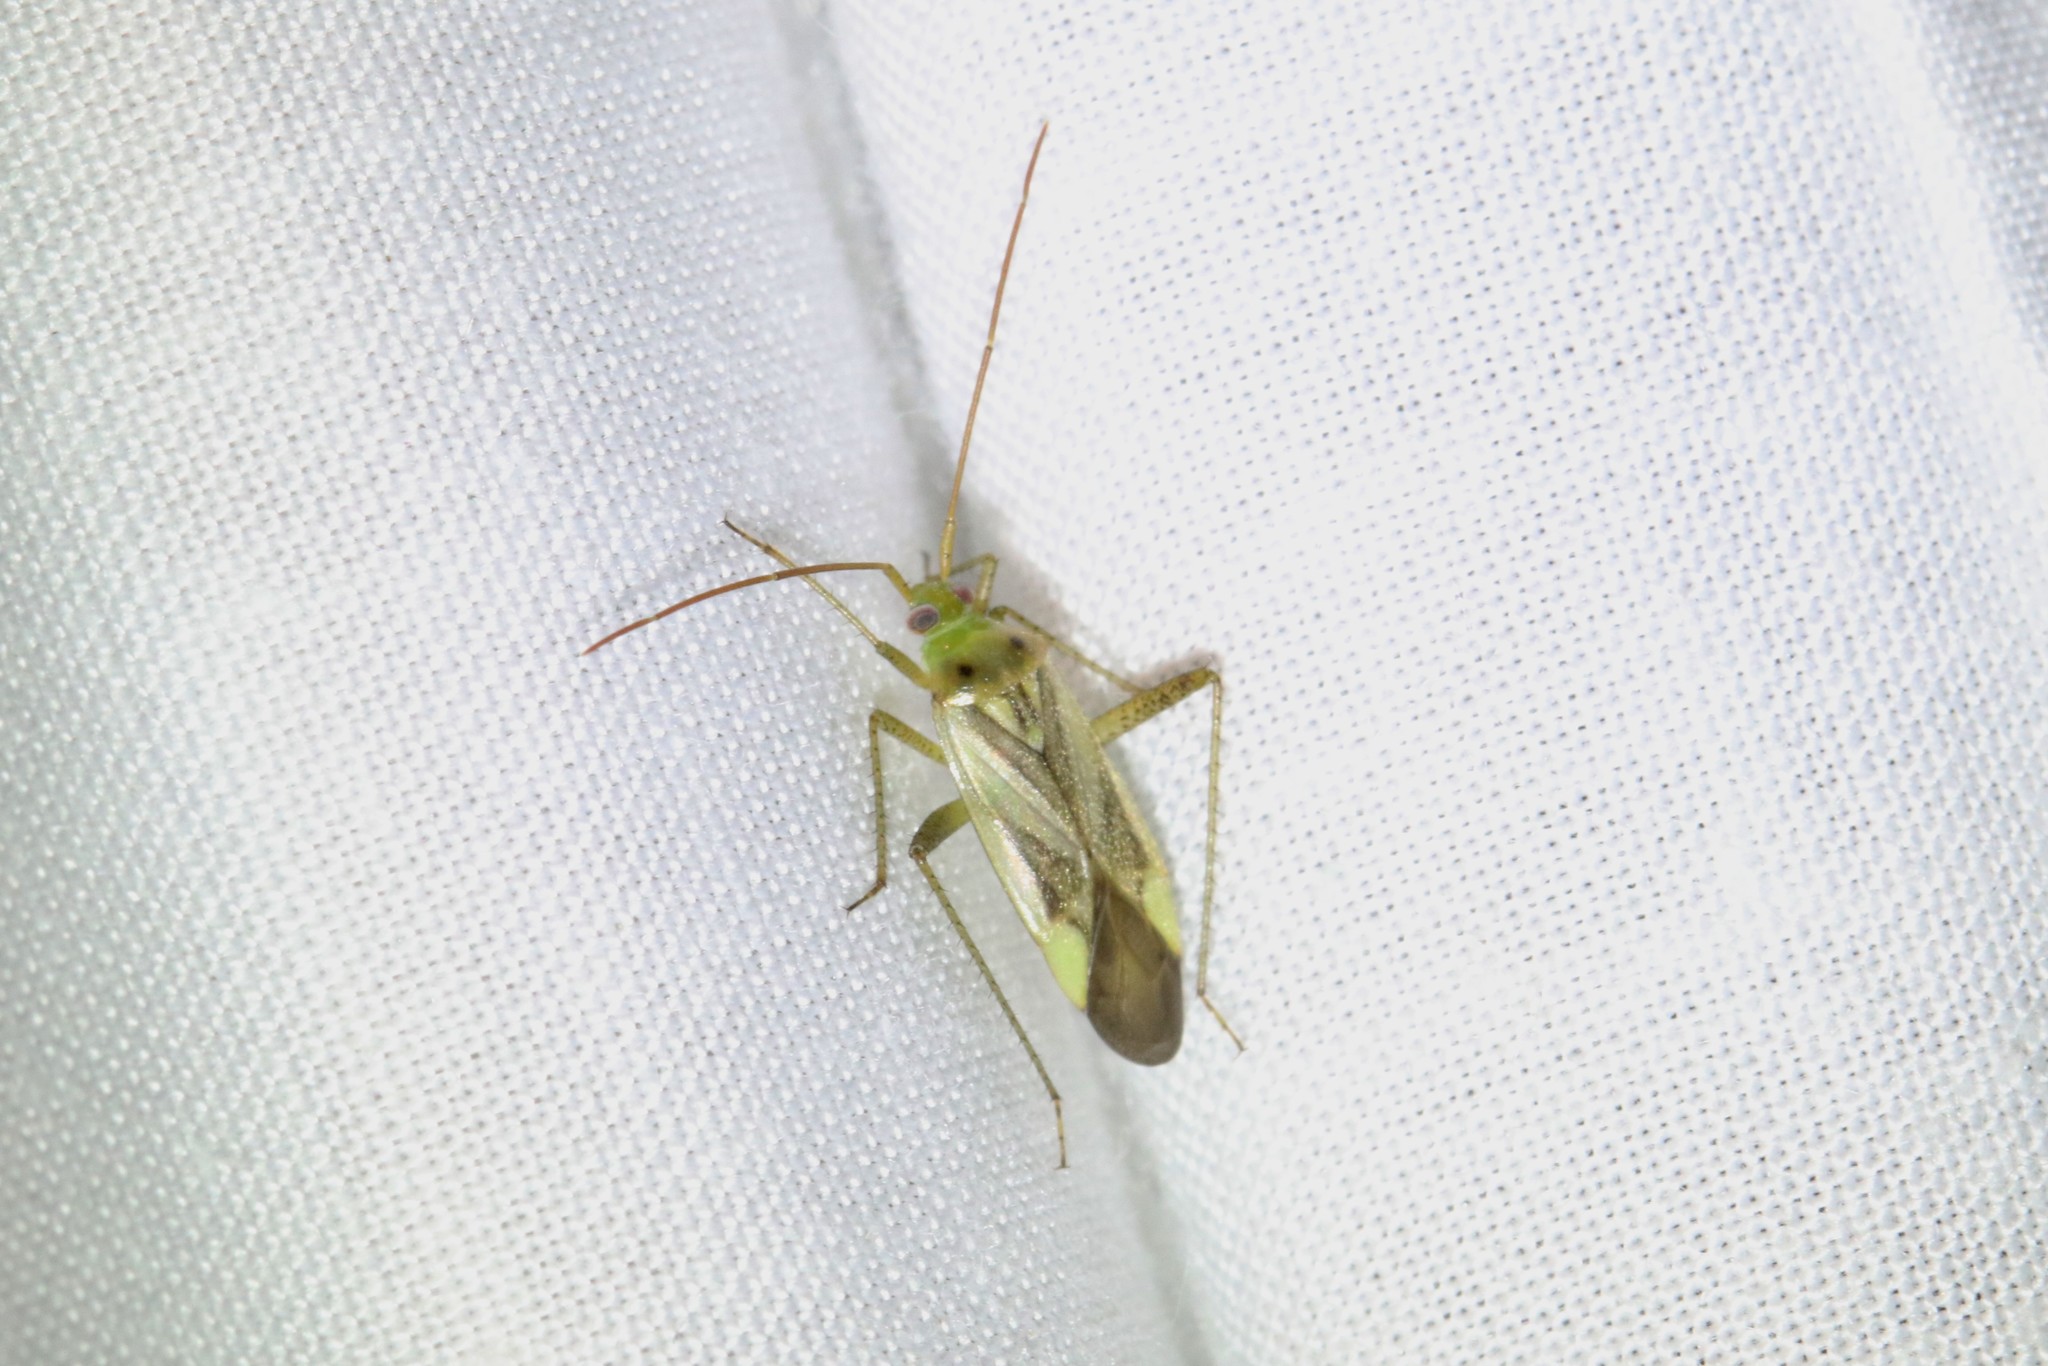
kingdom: Animalia
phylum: Arthropoda
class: Insecta
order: Hemiptera
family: Miridae
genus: Adelphocoris
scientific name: Adelphocoris lineolatus
